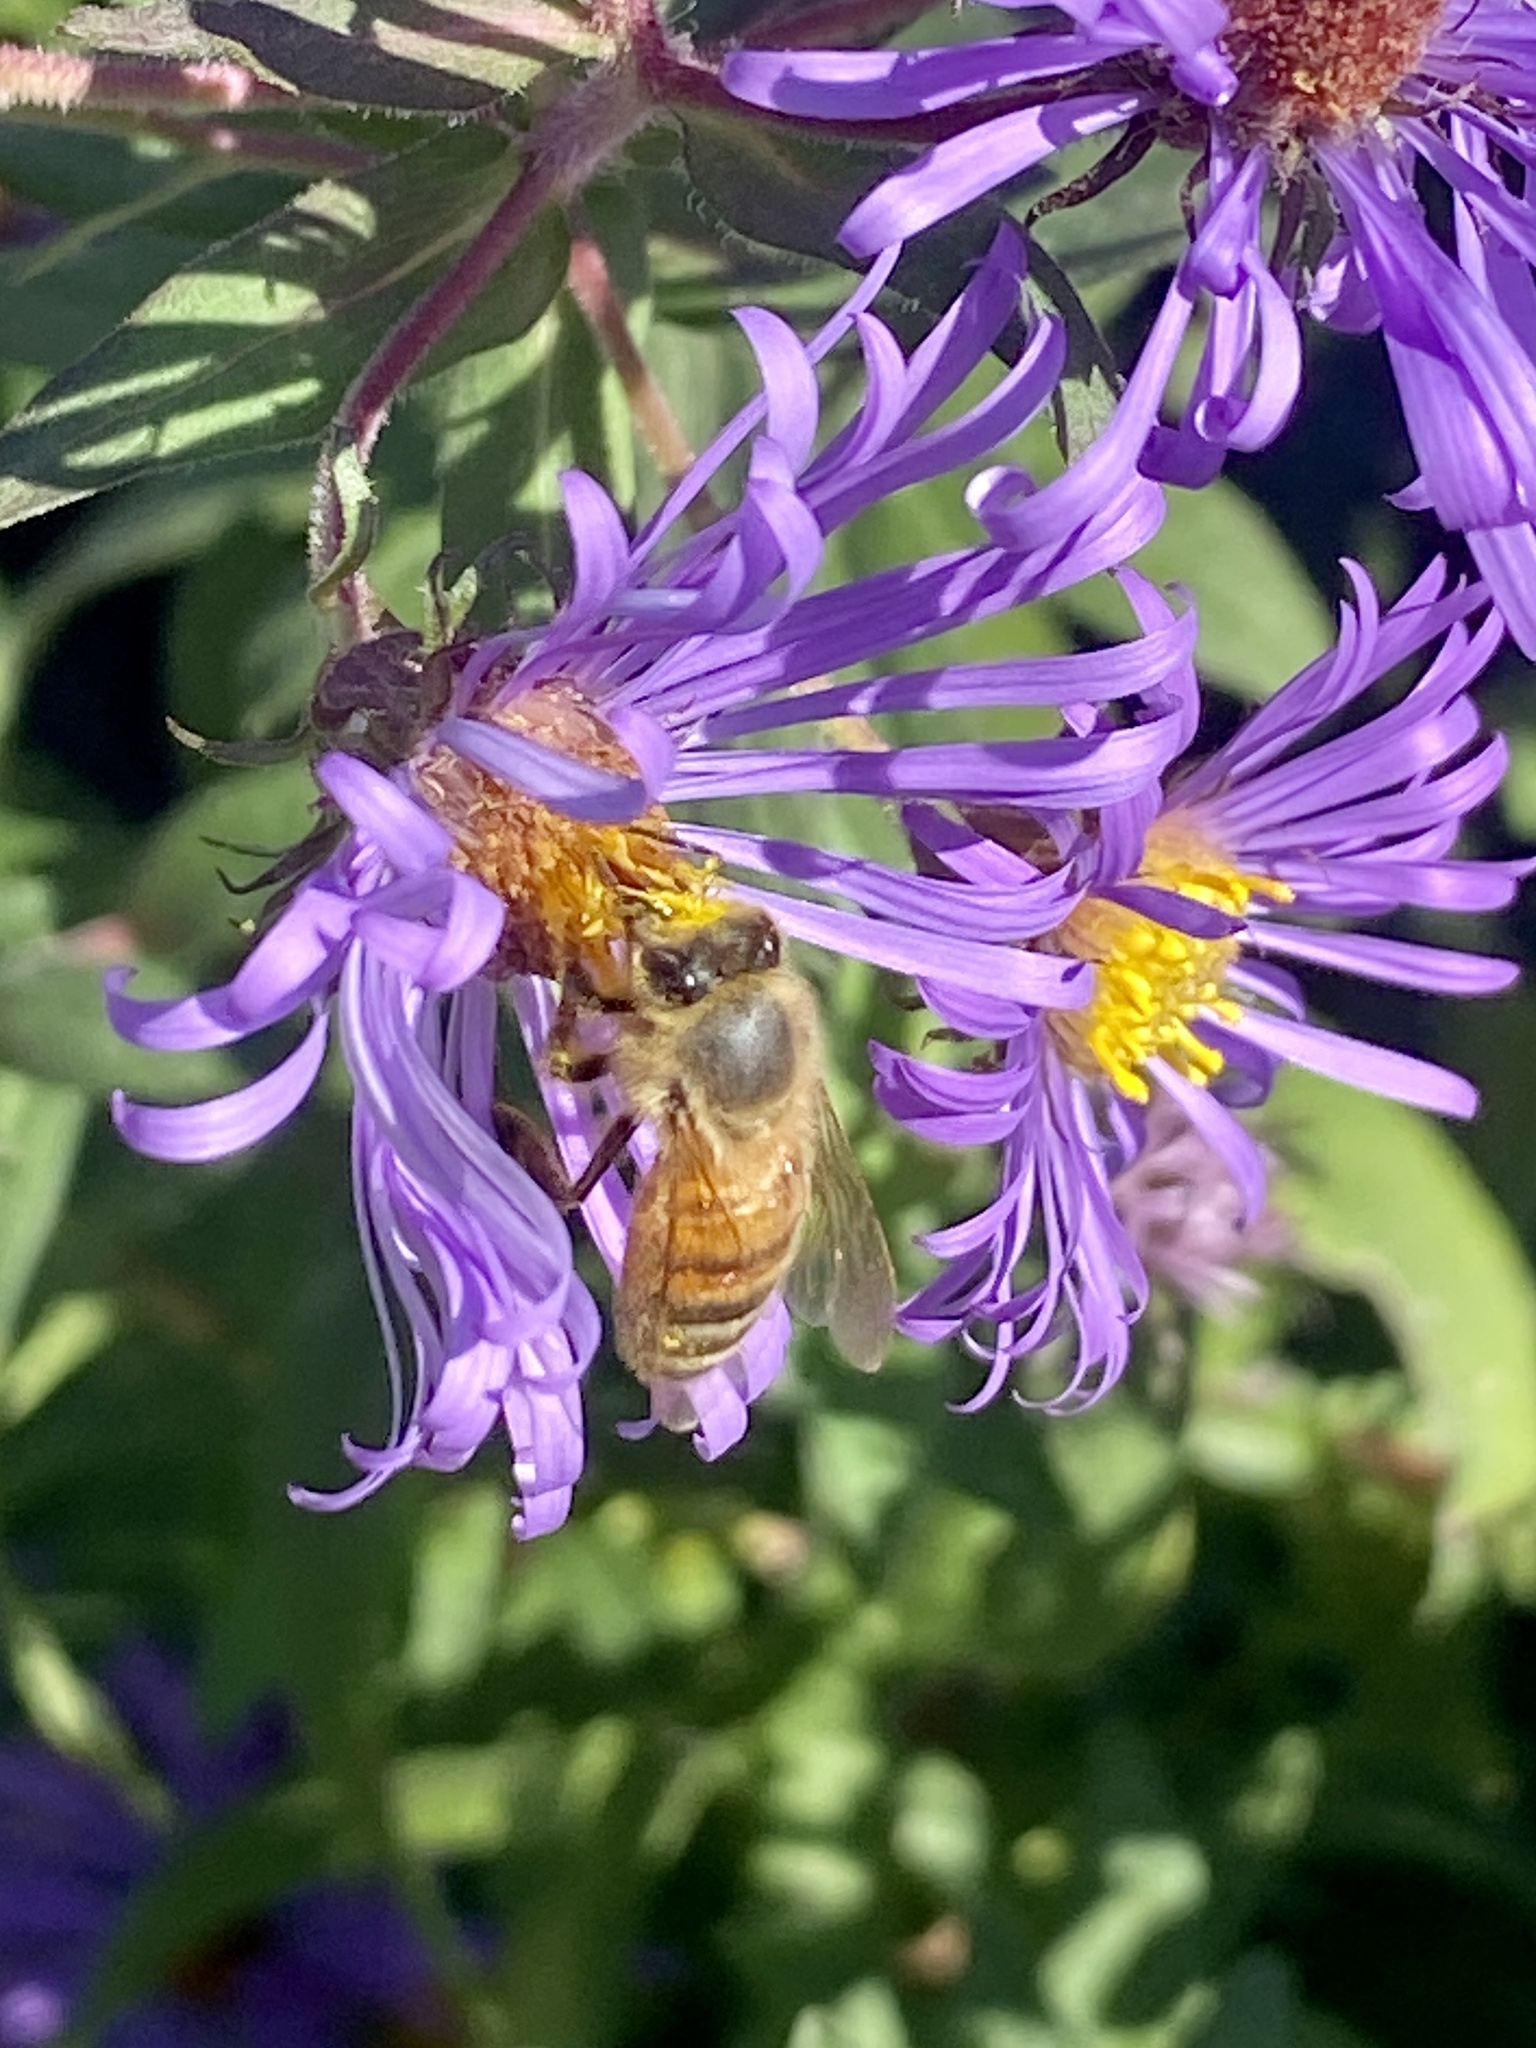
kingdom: Animalia
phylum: Arthropoda
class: Insecta
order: Hymenoptera
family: Apidae
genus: Apis
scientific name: Apis mellifera
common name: Honey bee
